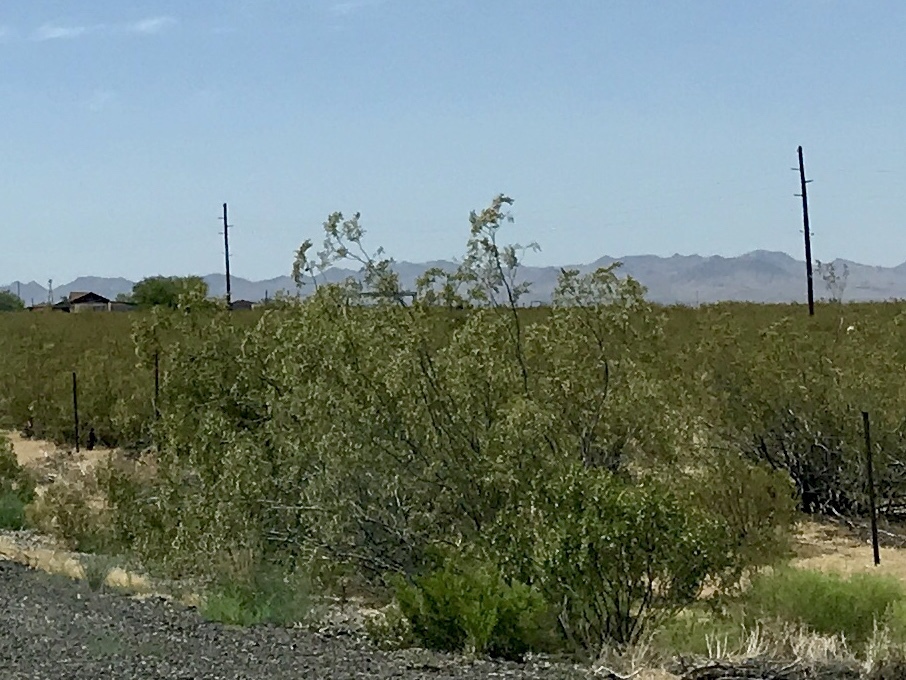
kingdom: Plantae
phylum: Tracheophyta
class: Magnoliopsida
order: Zygophyllales
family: Zygophyllaceae
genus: Larrea
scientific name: Larrea tridentata
